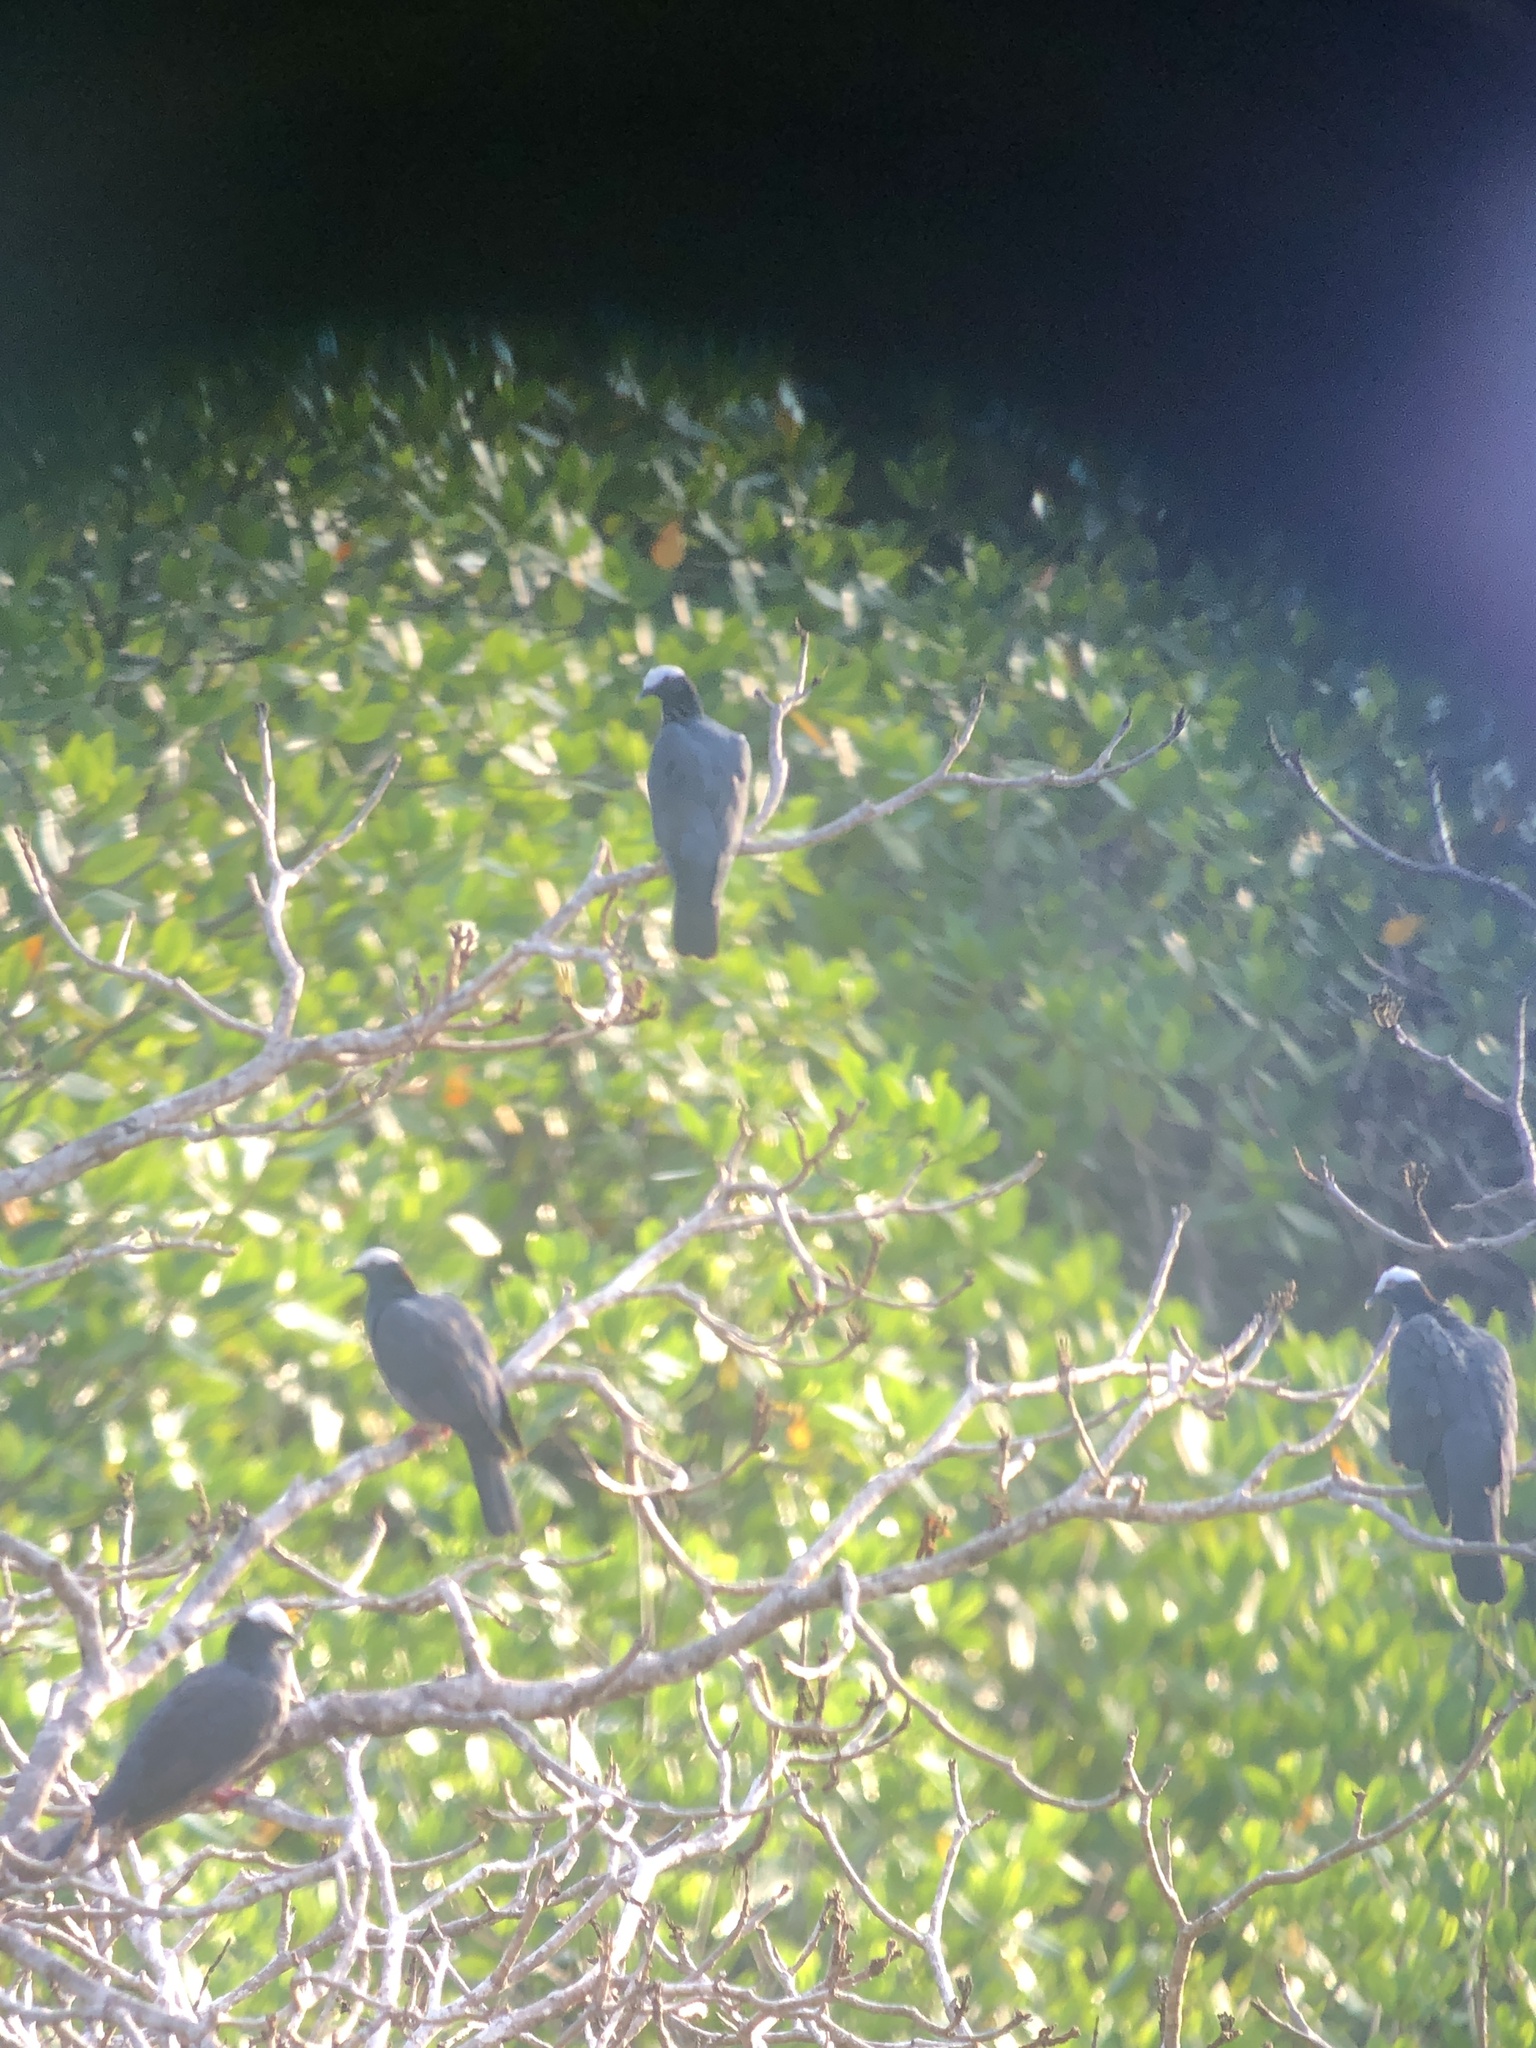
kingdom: Animalia
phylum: Chordata
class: Aves
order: Columbiformes
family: Columbidae
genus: Patagioenas
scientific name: Patagioenas leucocephala
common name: White-crowned pigeon
